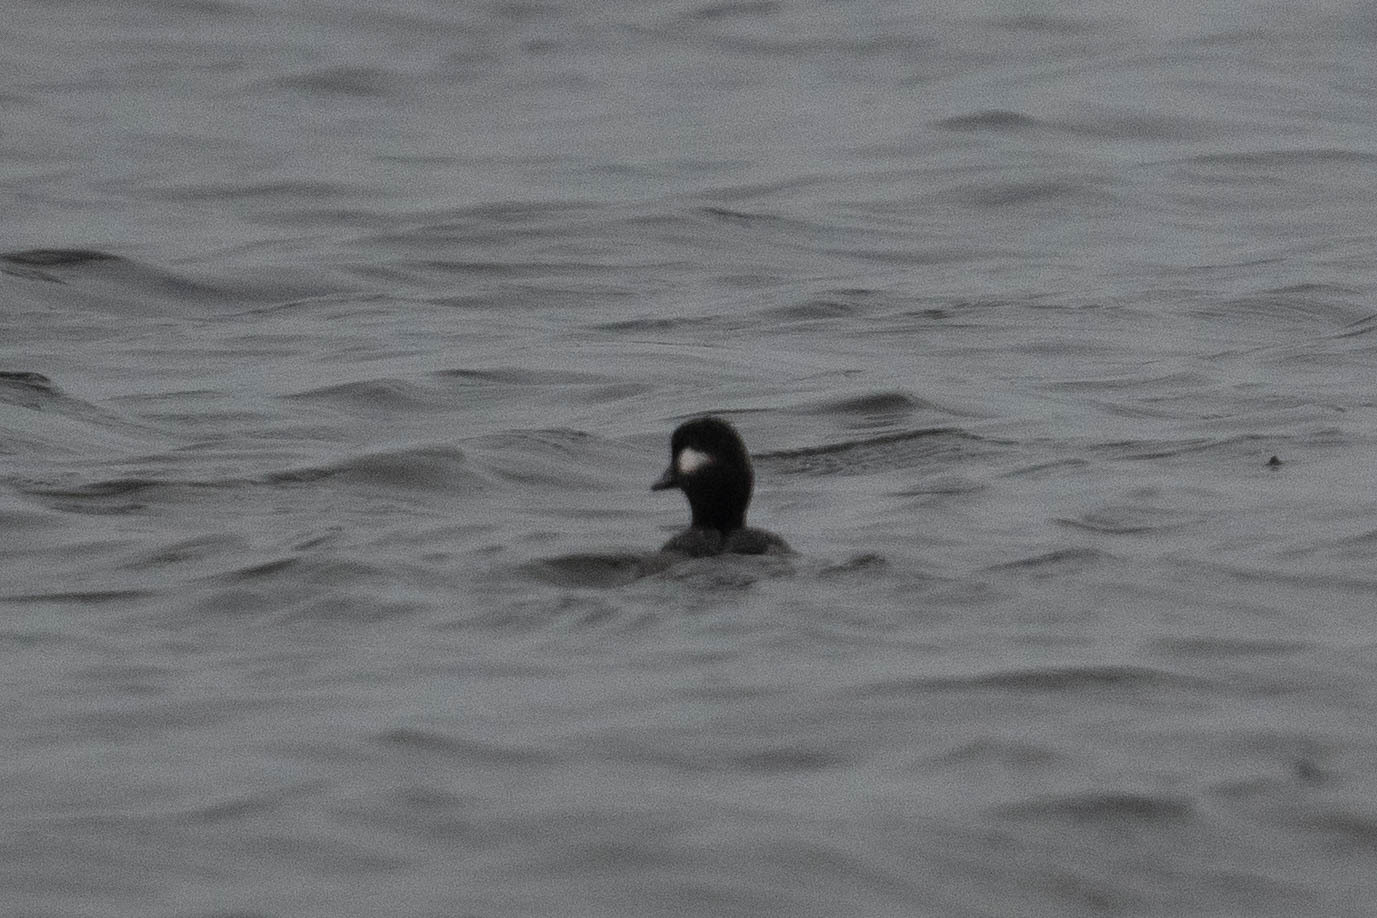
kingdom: Animalia
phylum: Chordata
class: Aves
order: Anseriformes
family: Anatidae
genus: Bucephala
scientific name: Bucephala albeola
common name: Bufflehead
